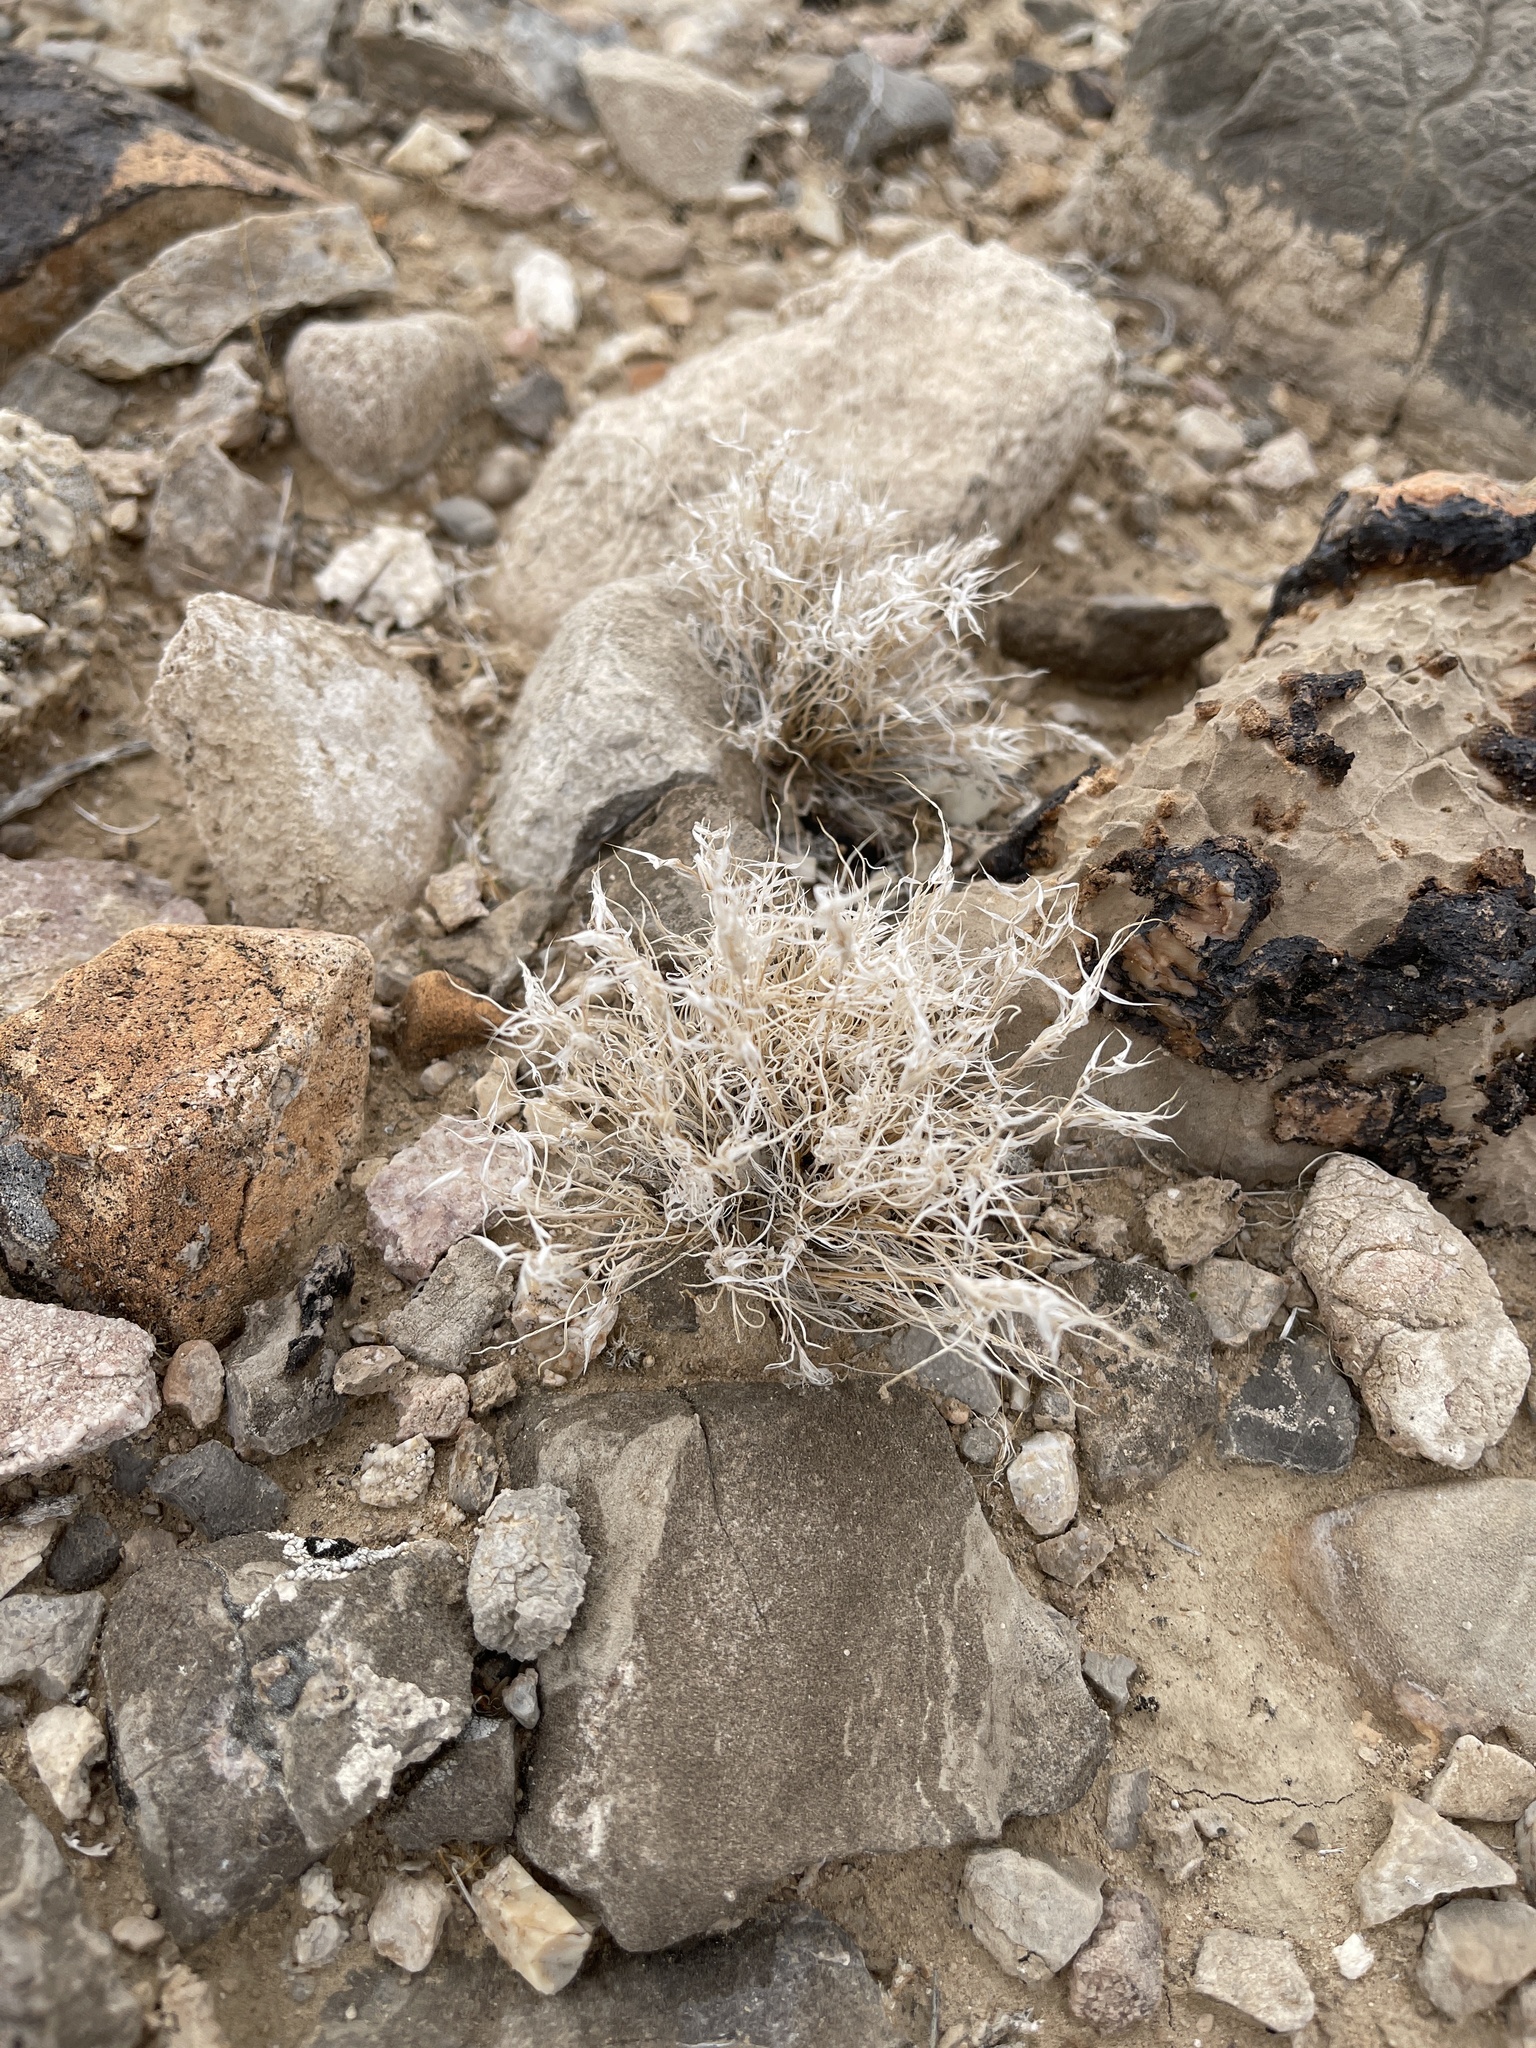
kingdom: Plantae
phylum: Tracheophyta
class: Liliopsida
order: Poales
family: Poaceae
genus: Dasyochloa
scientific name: Dasyochloa pulchella
